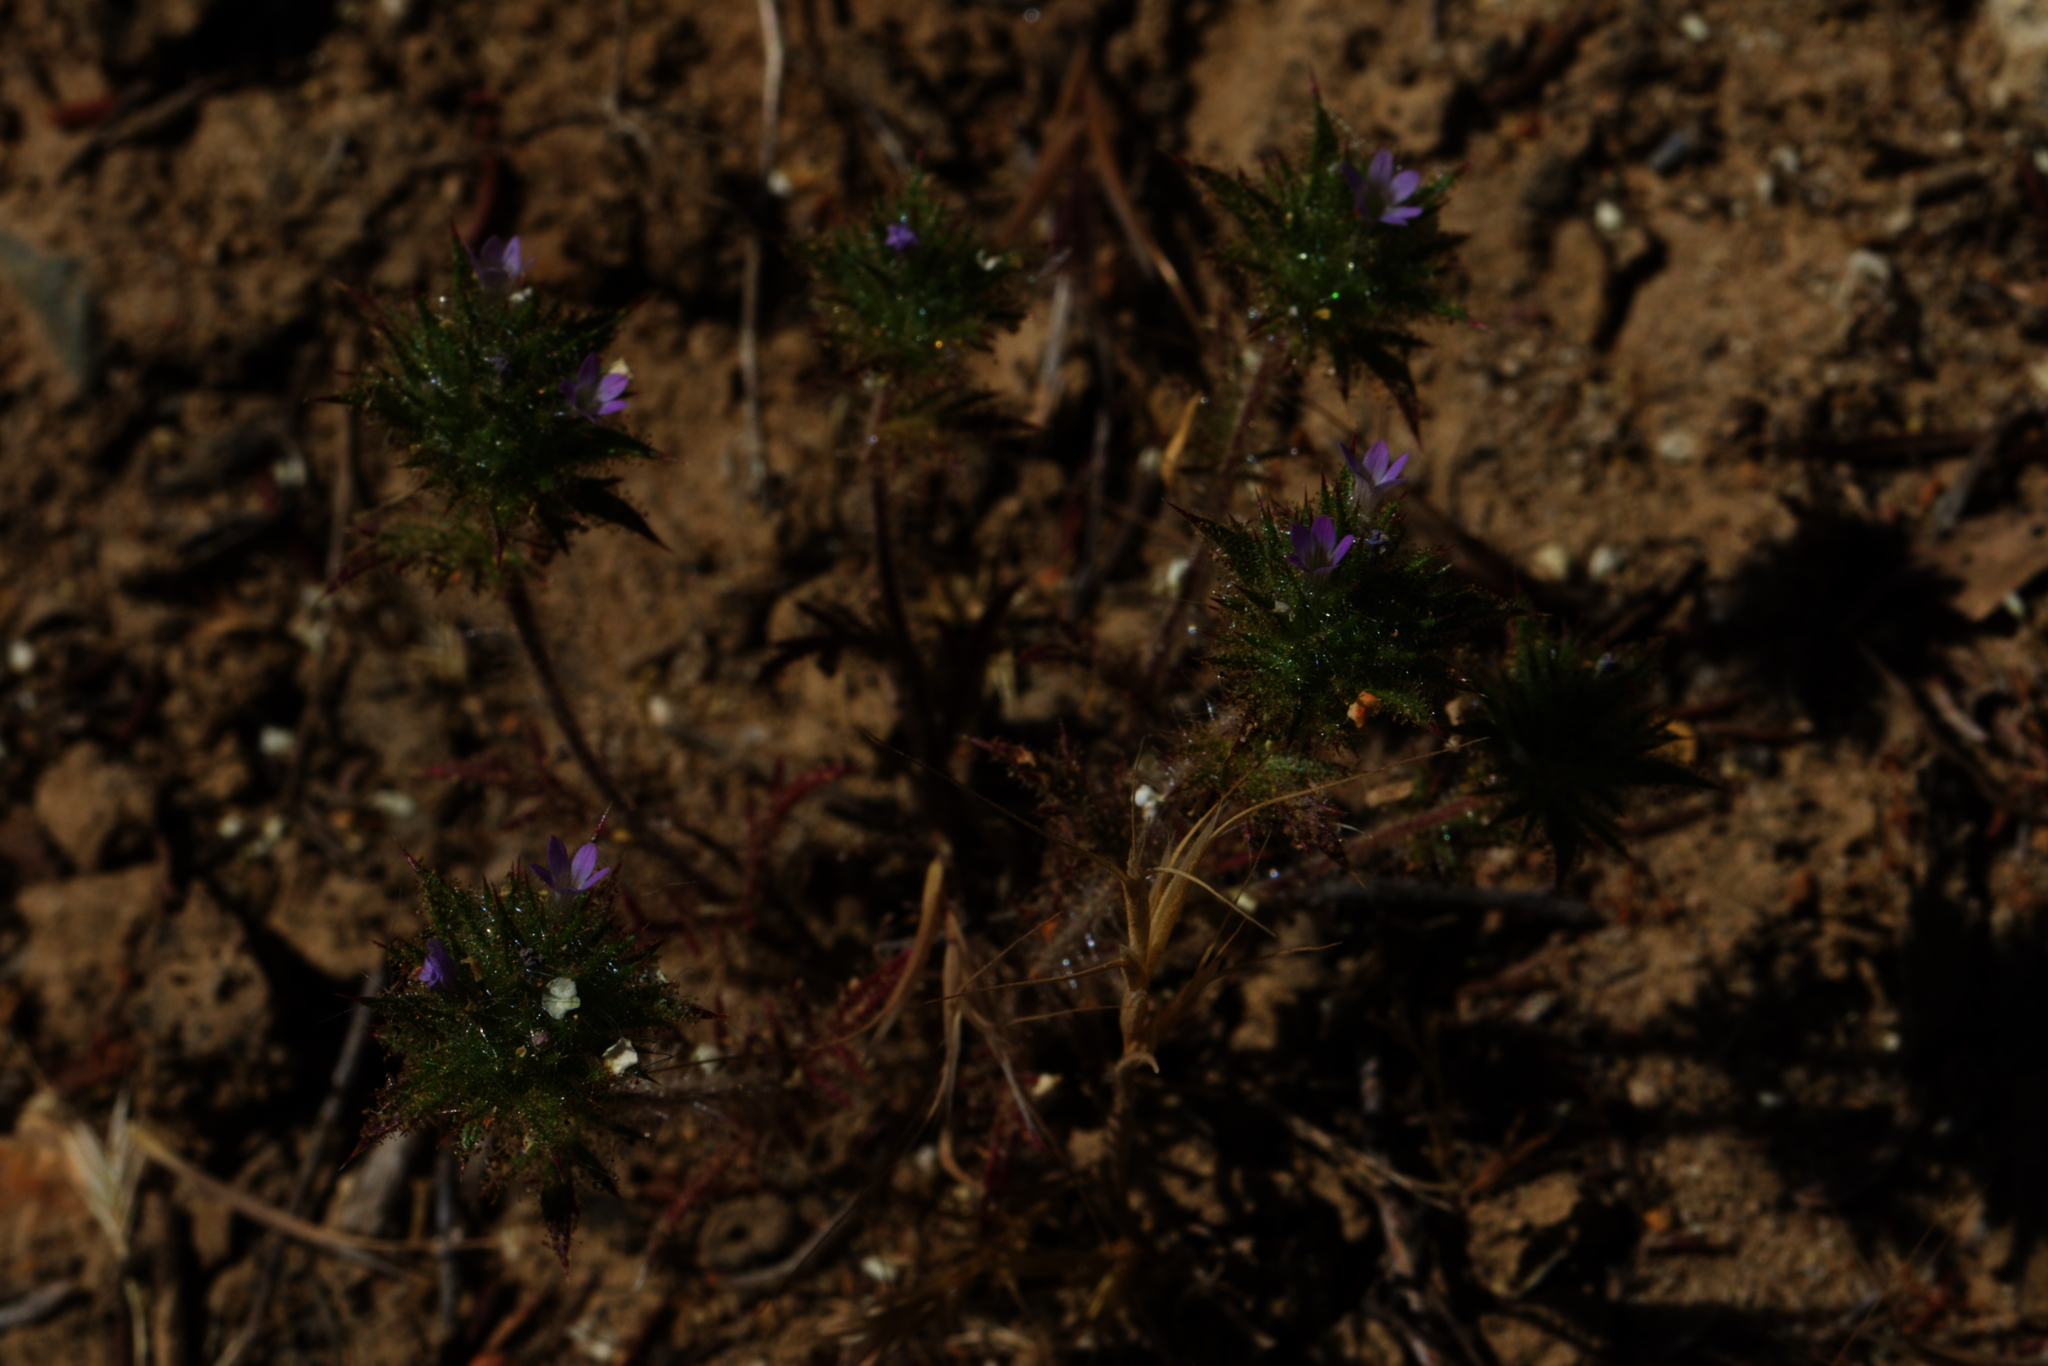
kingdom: Plantae
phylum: Tracheophyta
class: Magnoliopsida
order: Ericales
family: Polemoniaceae
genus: Navarretia
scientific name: Navarretia mellita
